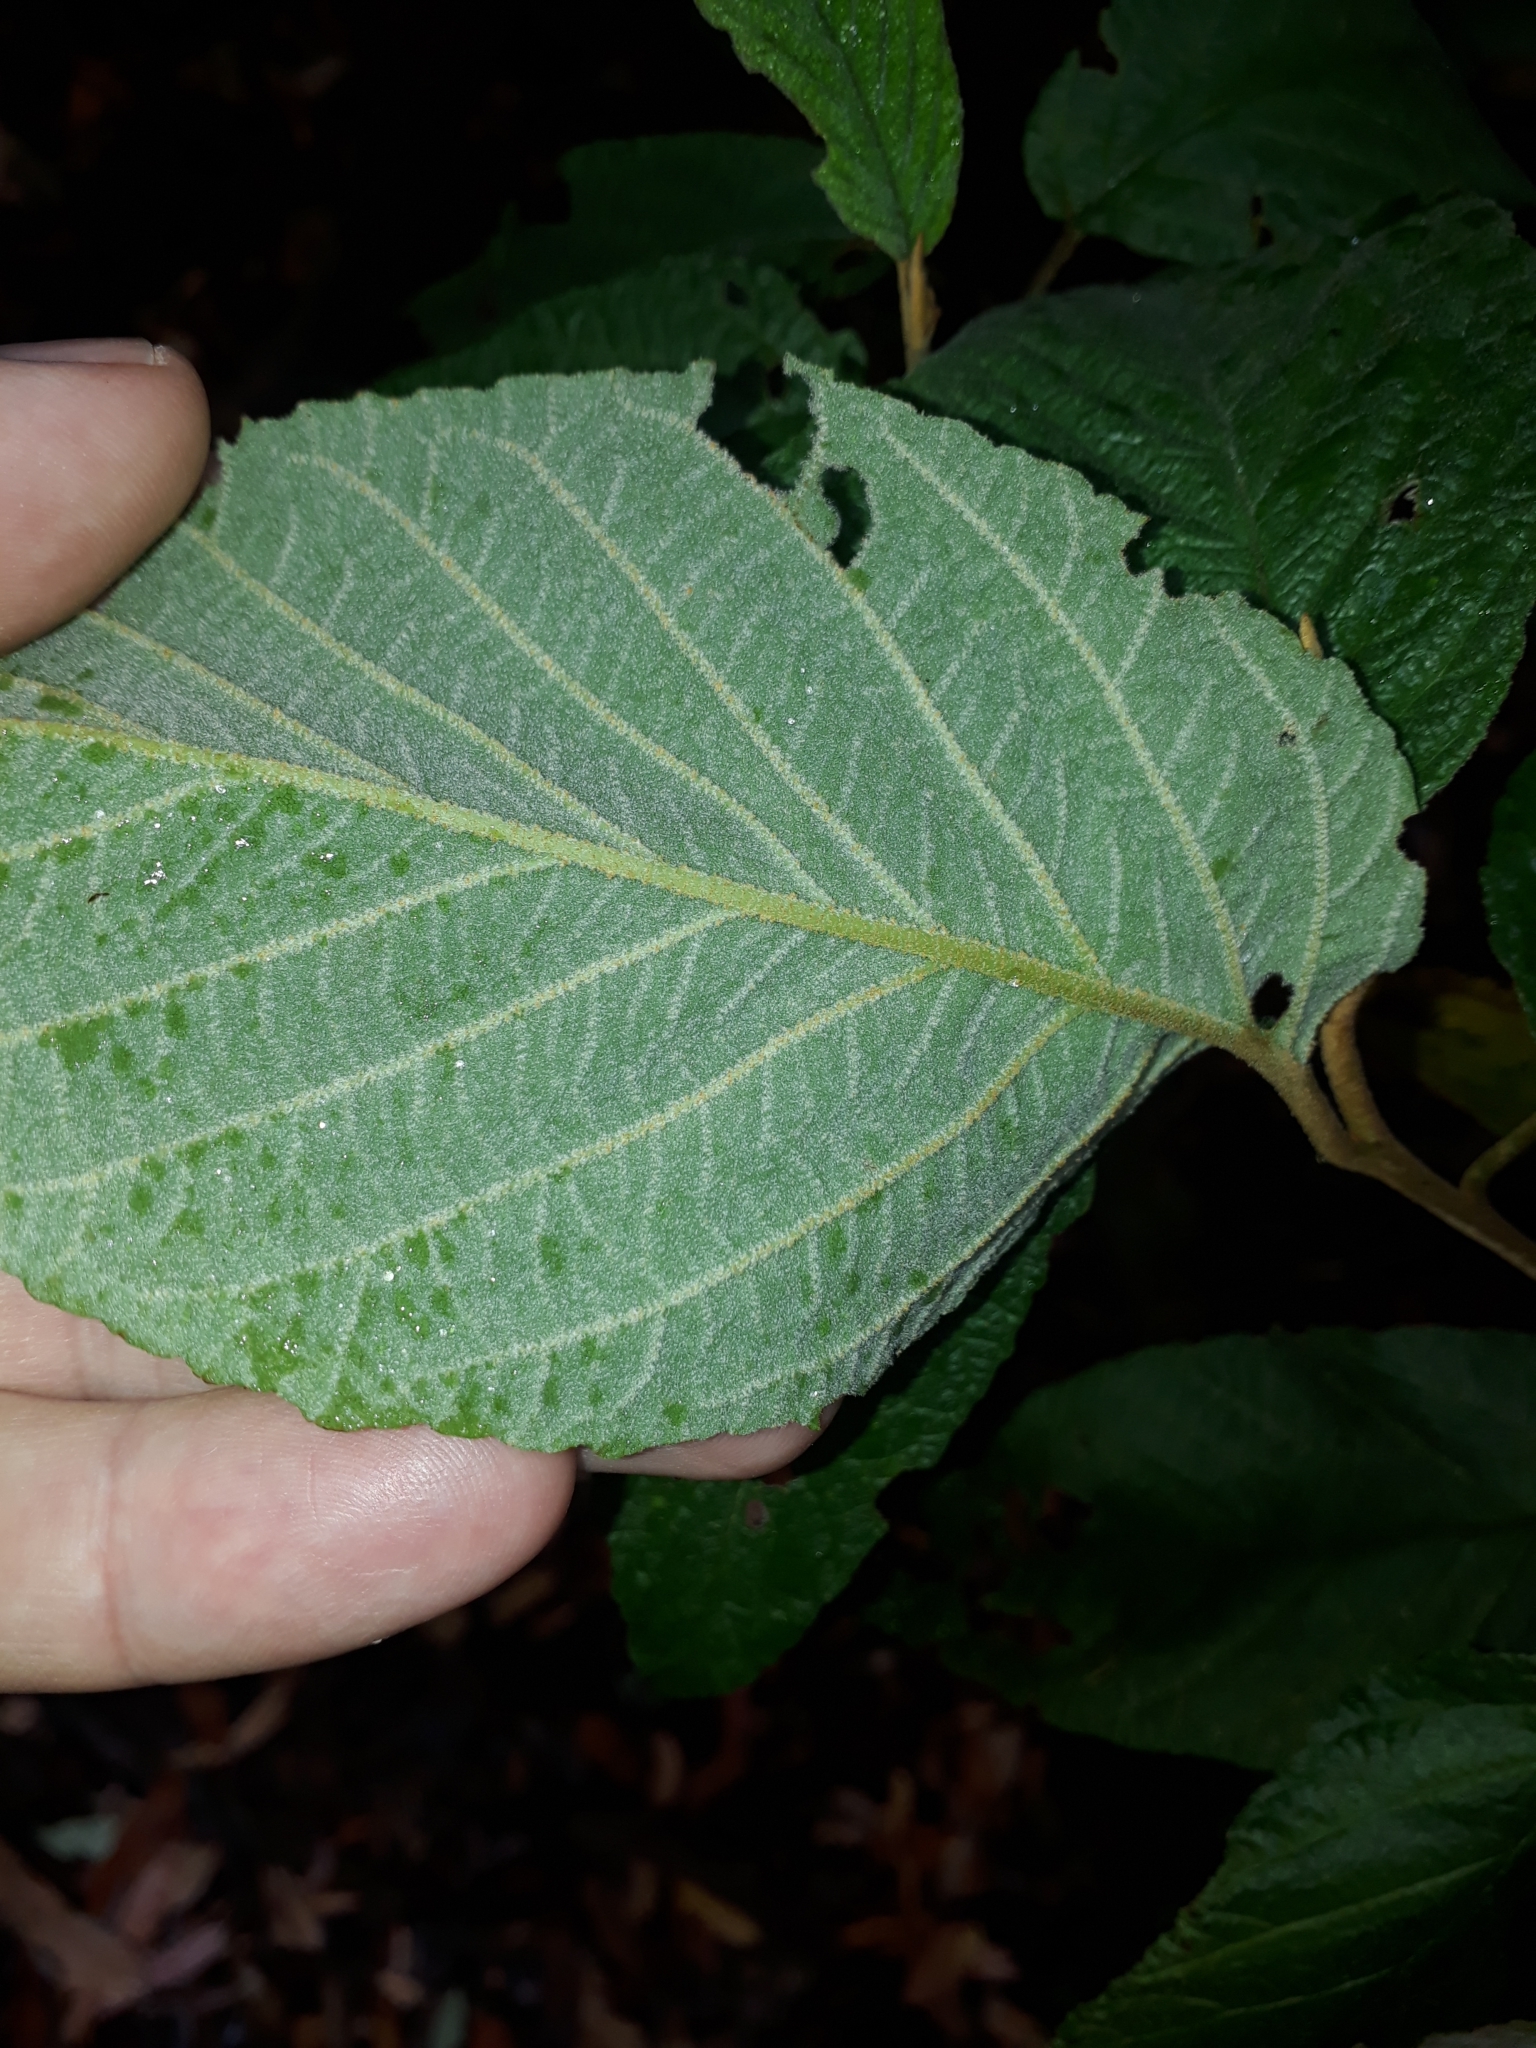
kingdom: Plantae
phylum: Tracheophyta
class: Magnoliopsida
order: Rosales
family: Rhamnaceae
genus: Pomaderris
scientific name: Pomaderris aspera
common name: Hazel pomaderris
